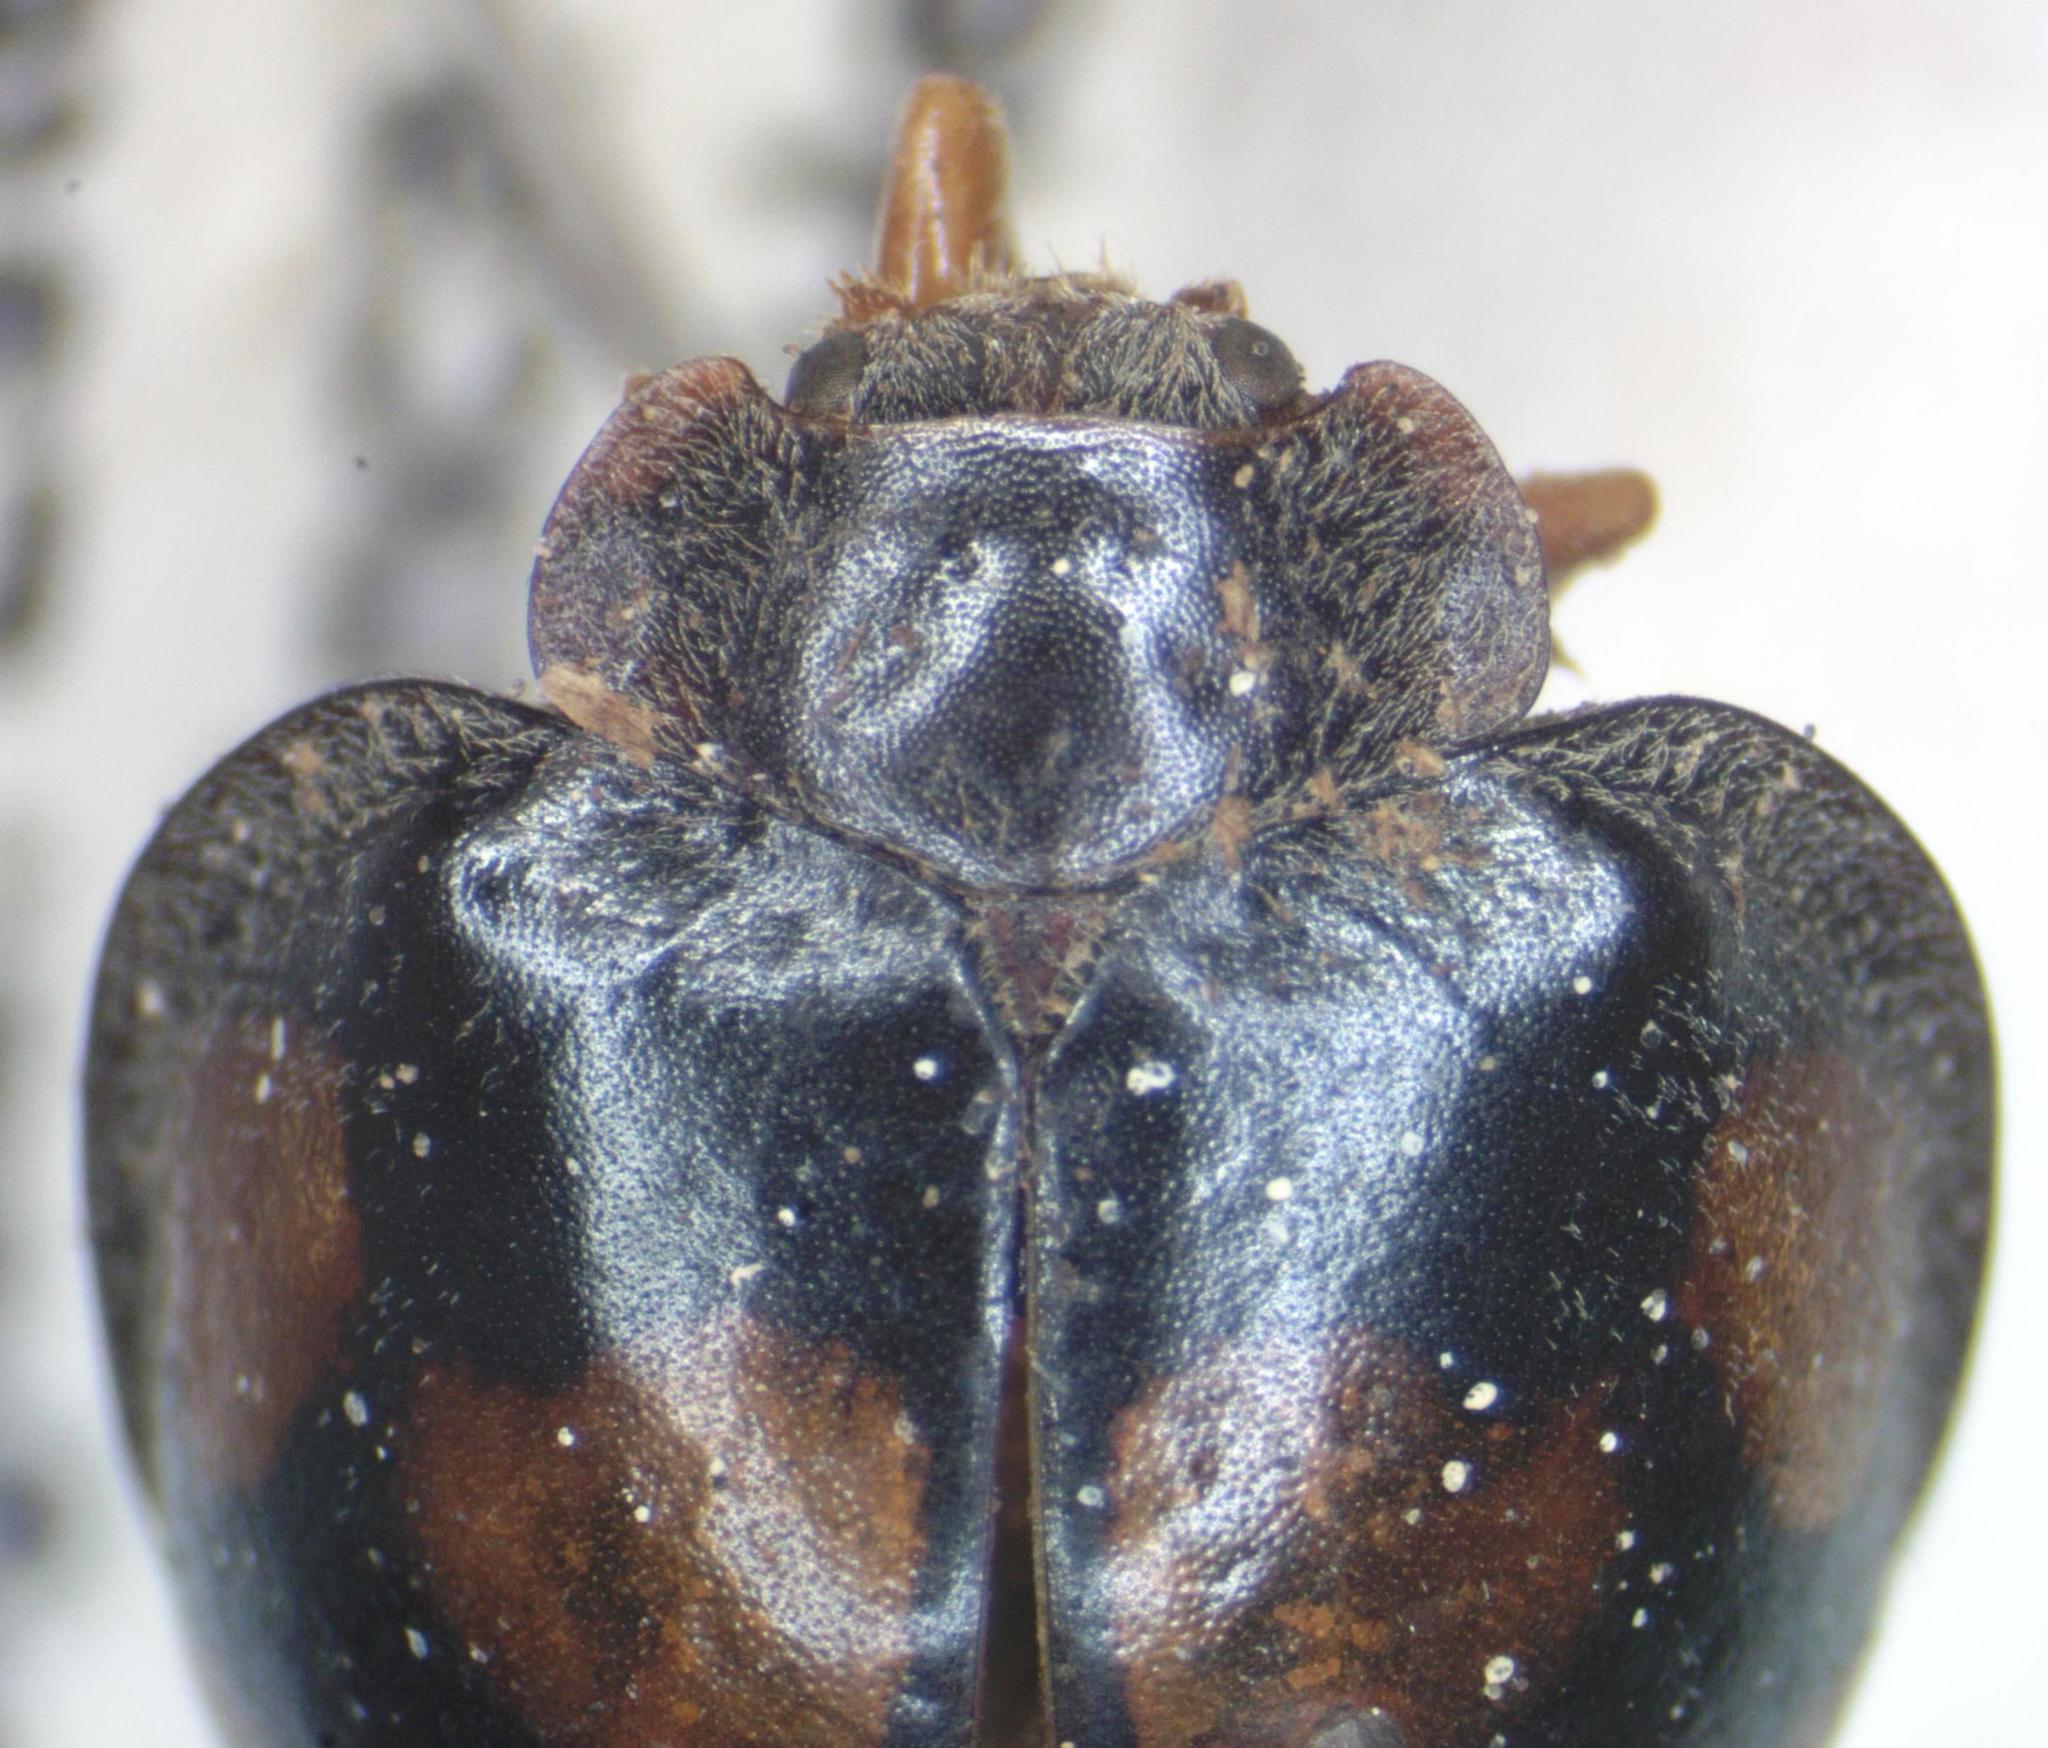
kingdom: Animalia
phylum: Arthropoda
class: Insecta
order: Coleoptera
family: Coccinellidae
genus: Epilachna
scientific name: Epilachna
